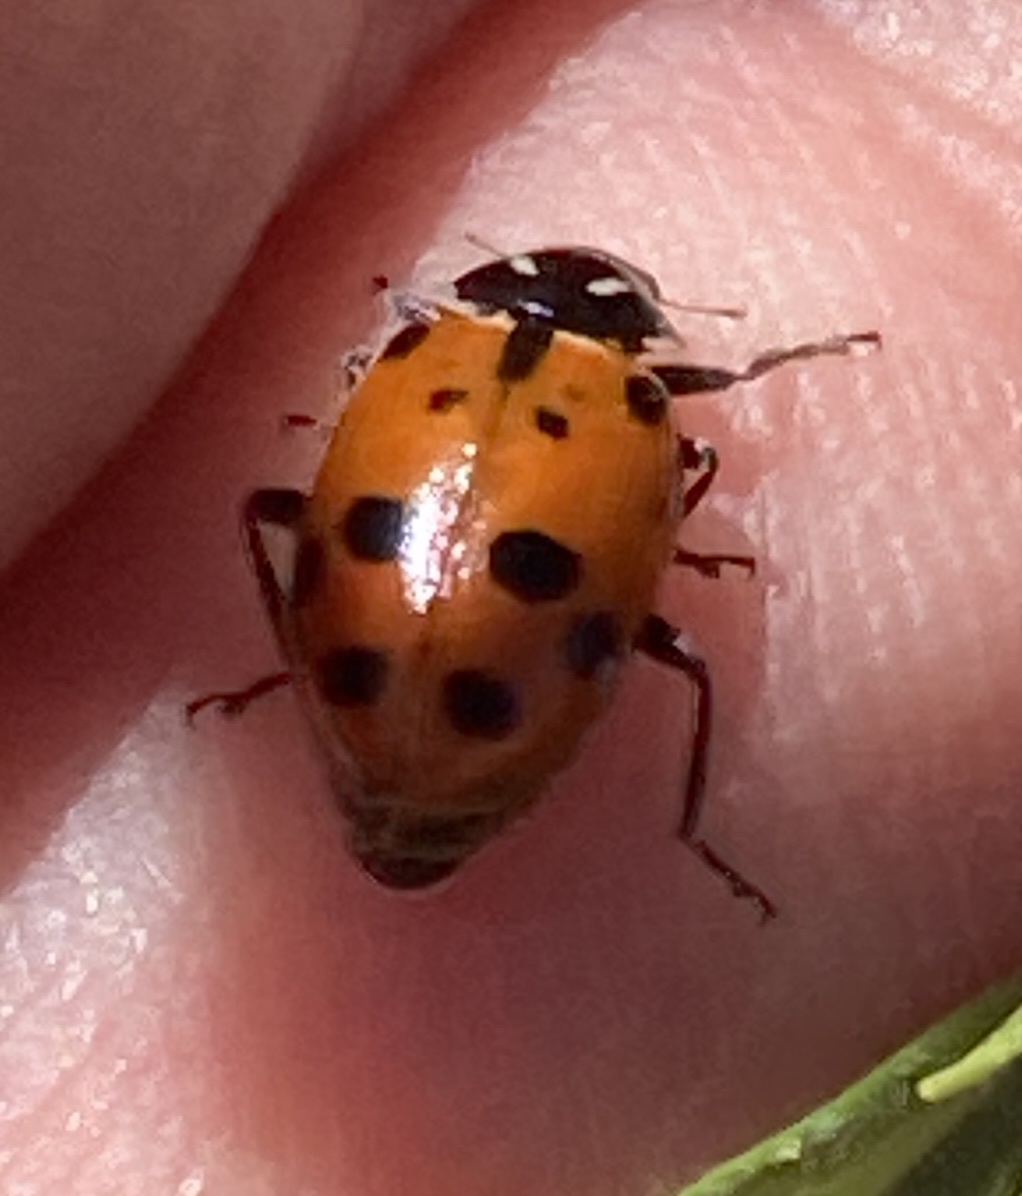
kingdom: Animalia
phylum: Arthropoda
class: Insecta
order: Coleoptera
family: Coccinellidae
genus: Hippodamia
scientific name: Hippodamia convergens
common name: Convergent lady beetle
